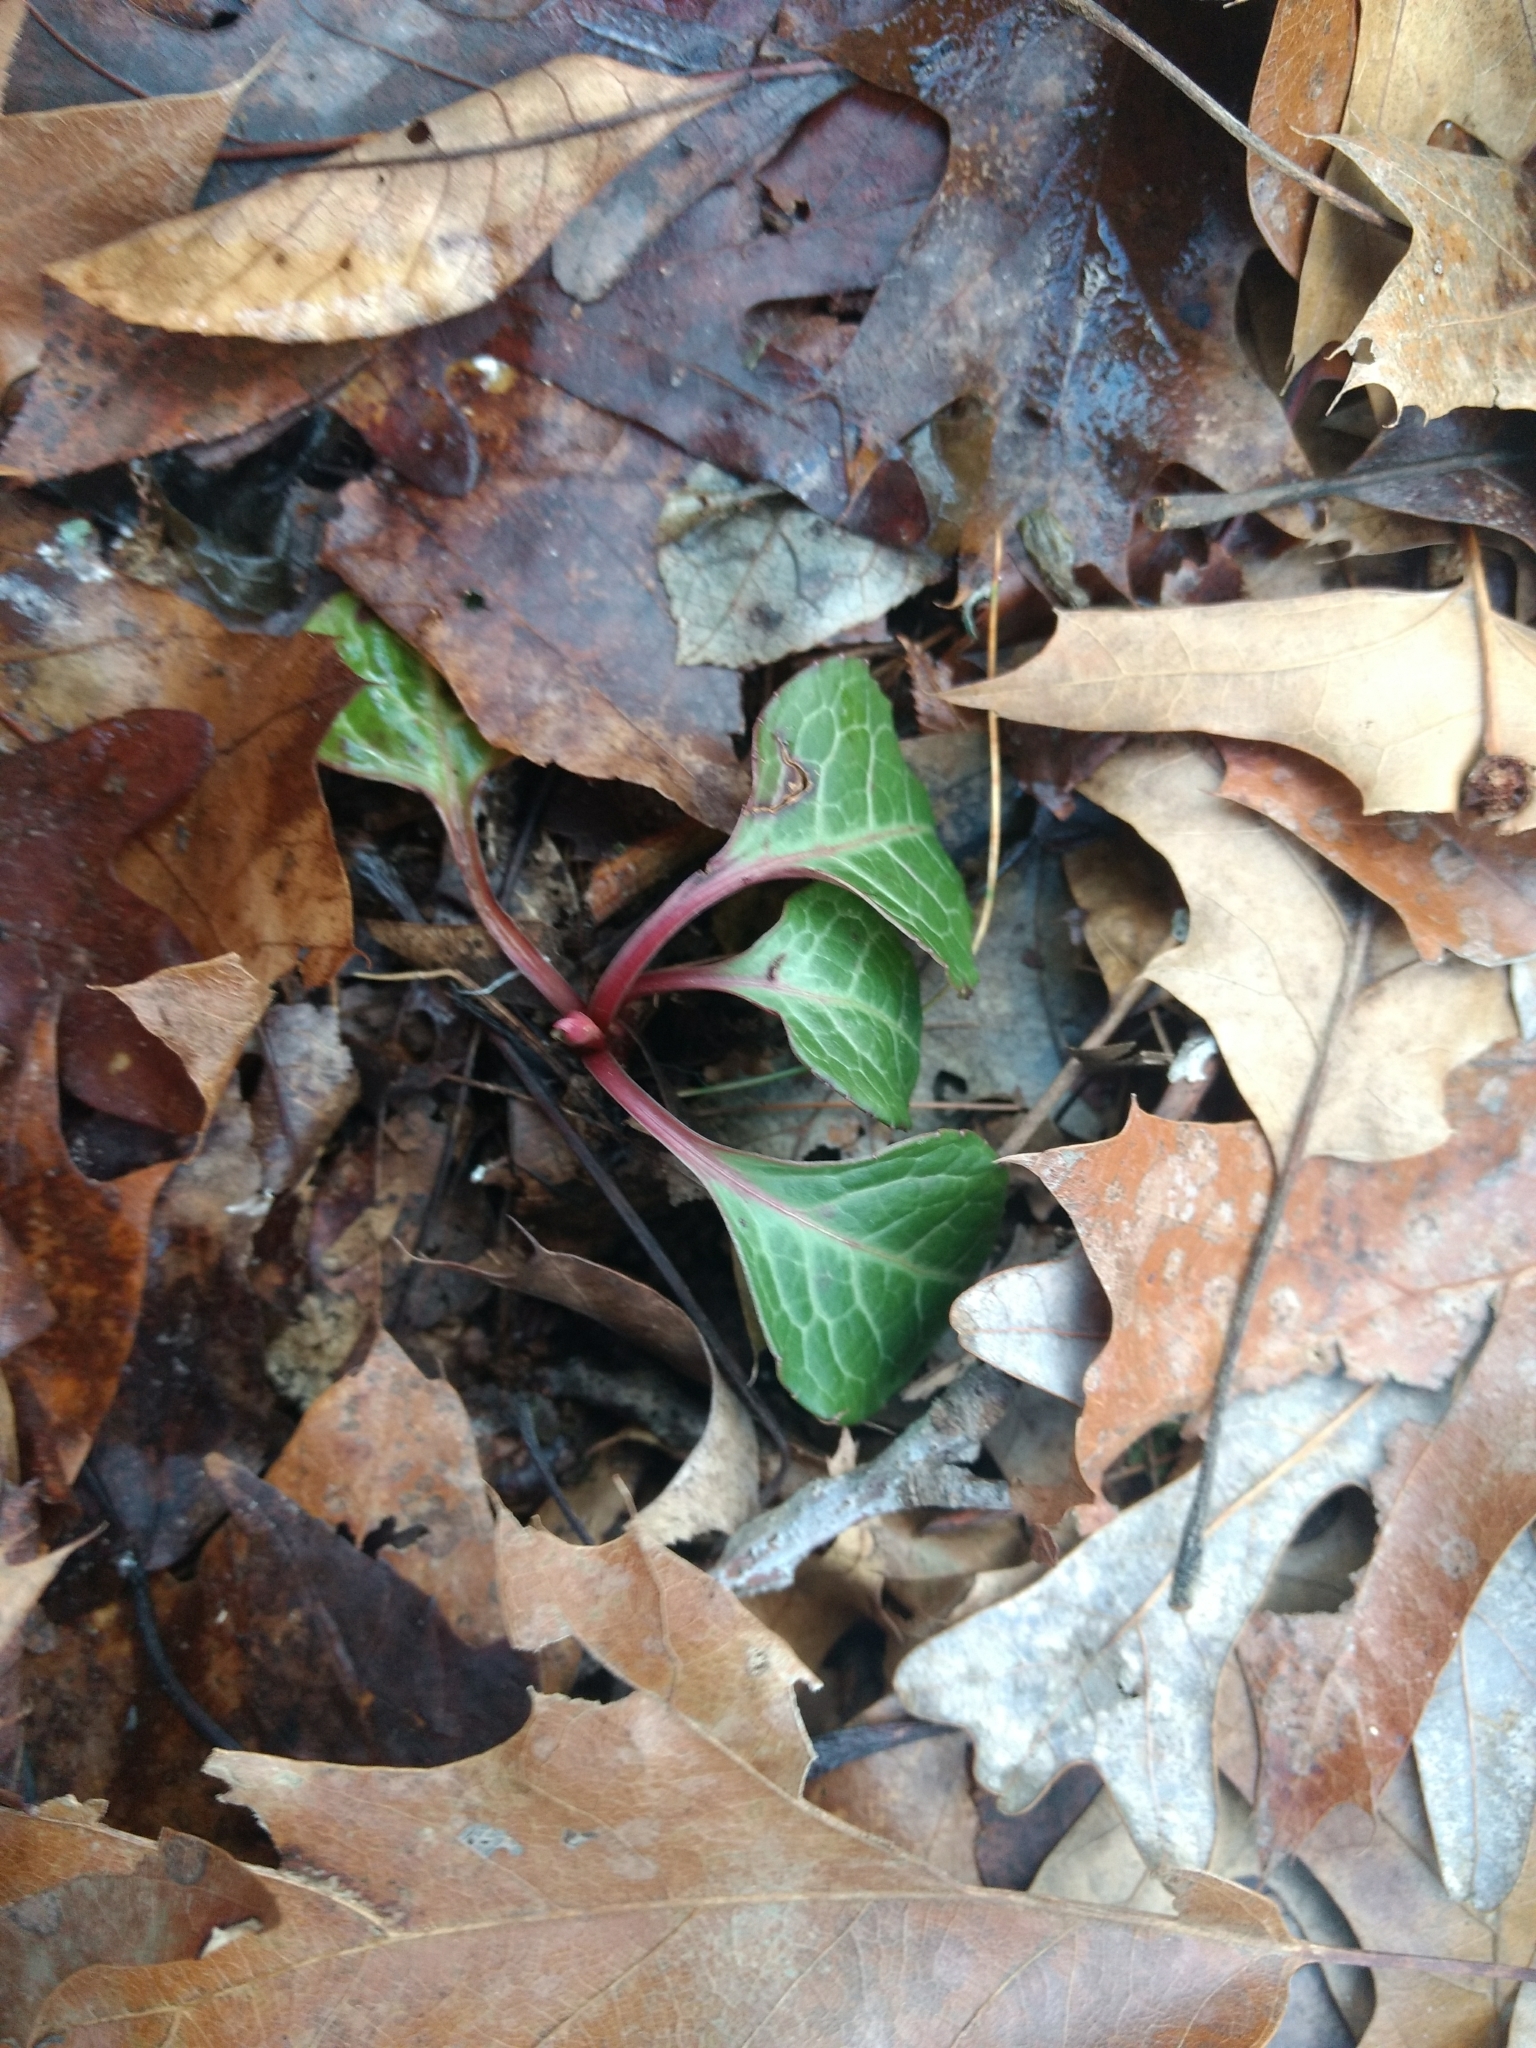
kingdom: Plantae
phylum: Tracheophyta
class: Magnoliopsida
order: Ericales
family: Ericaceae
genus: Pyrola
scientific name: Pyrola americana
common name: American wintergreen
